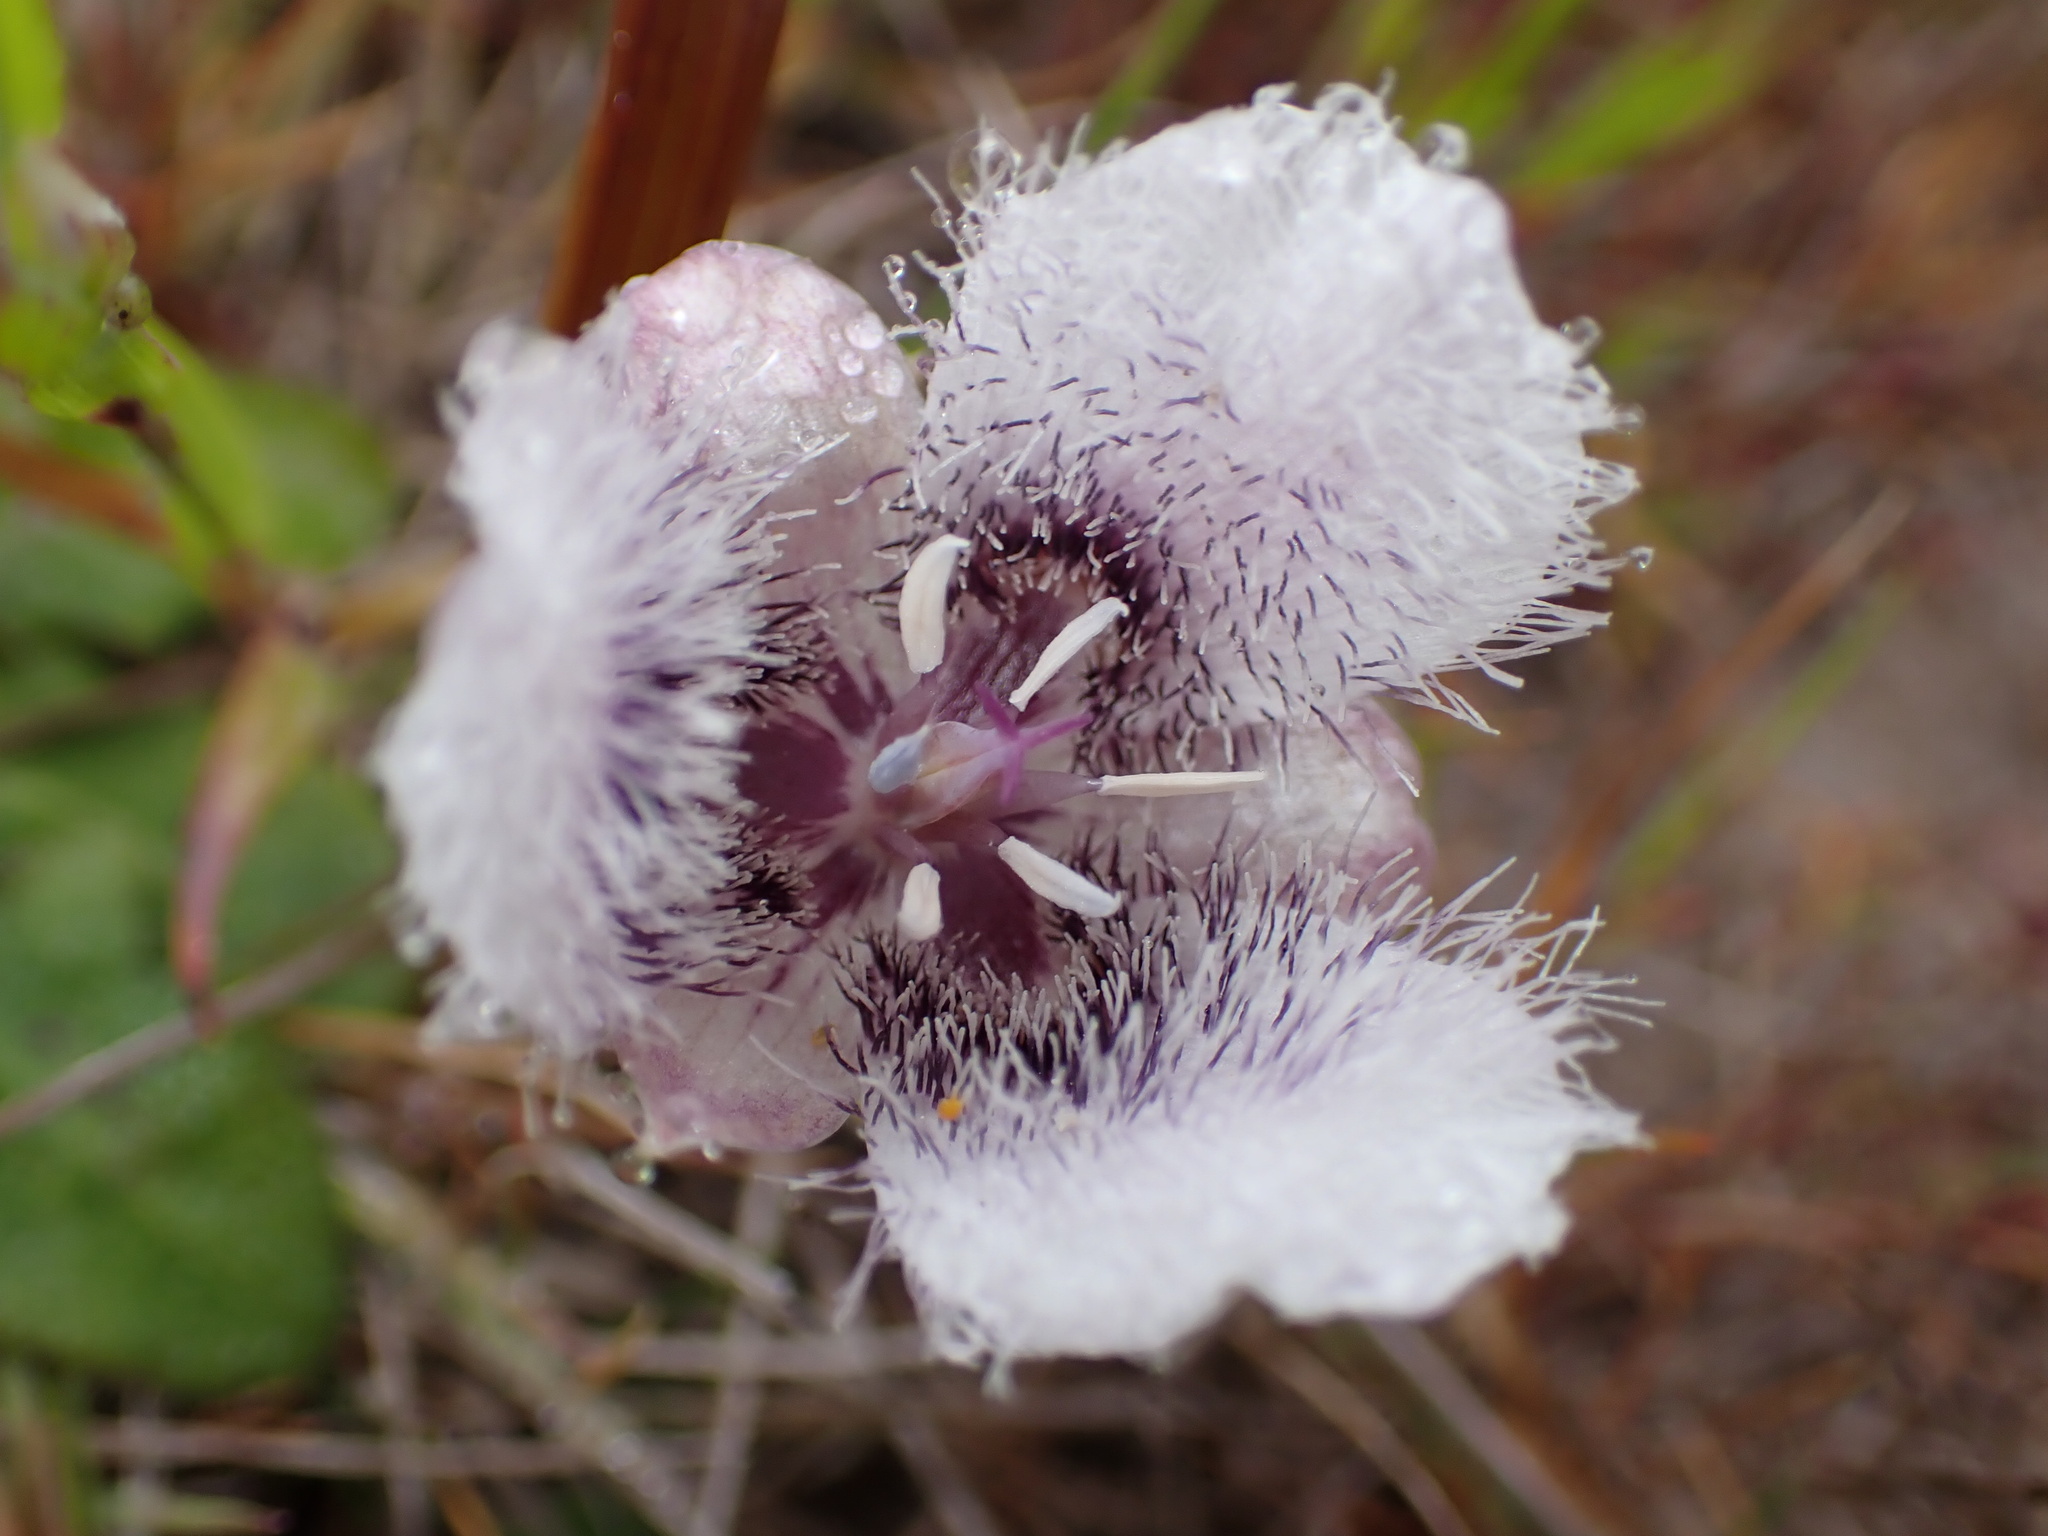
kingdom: Plantae
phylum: Tracheophyta
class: Liliopsida
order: Liliales
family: Liliaceae
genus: Calochortus
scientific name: Calochortus tolmiei
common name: Pussy-ears
